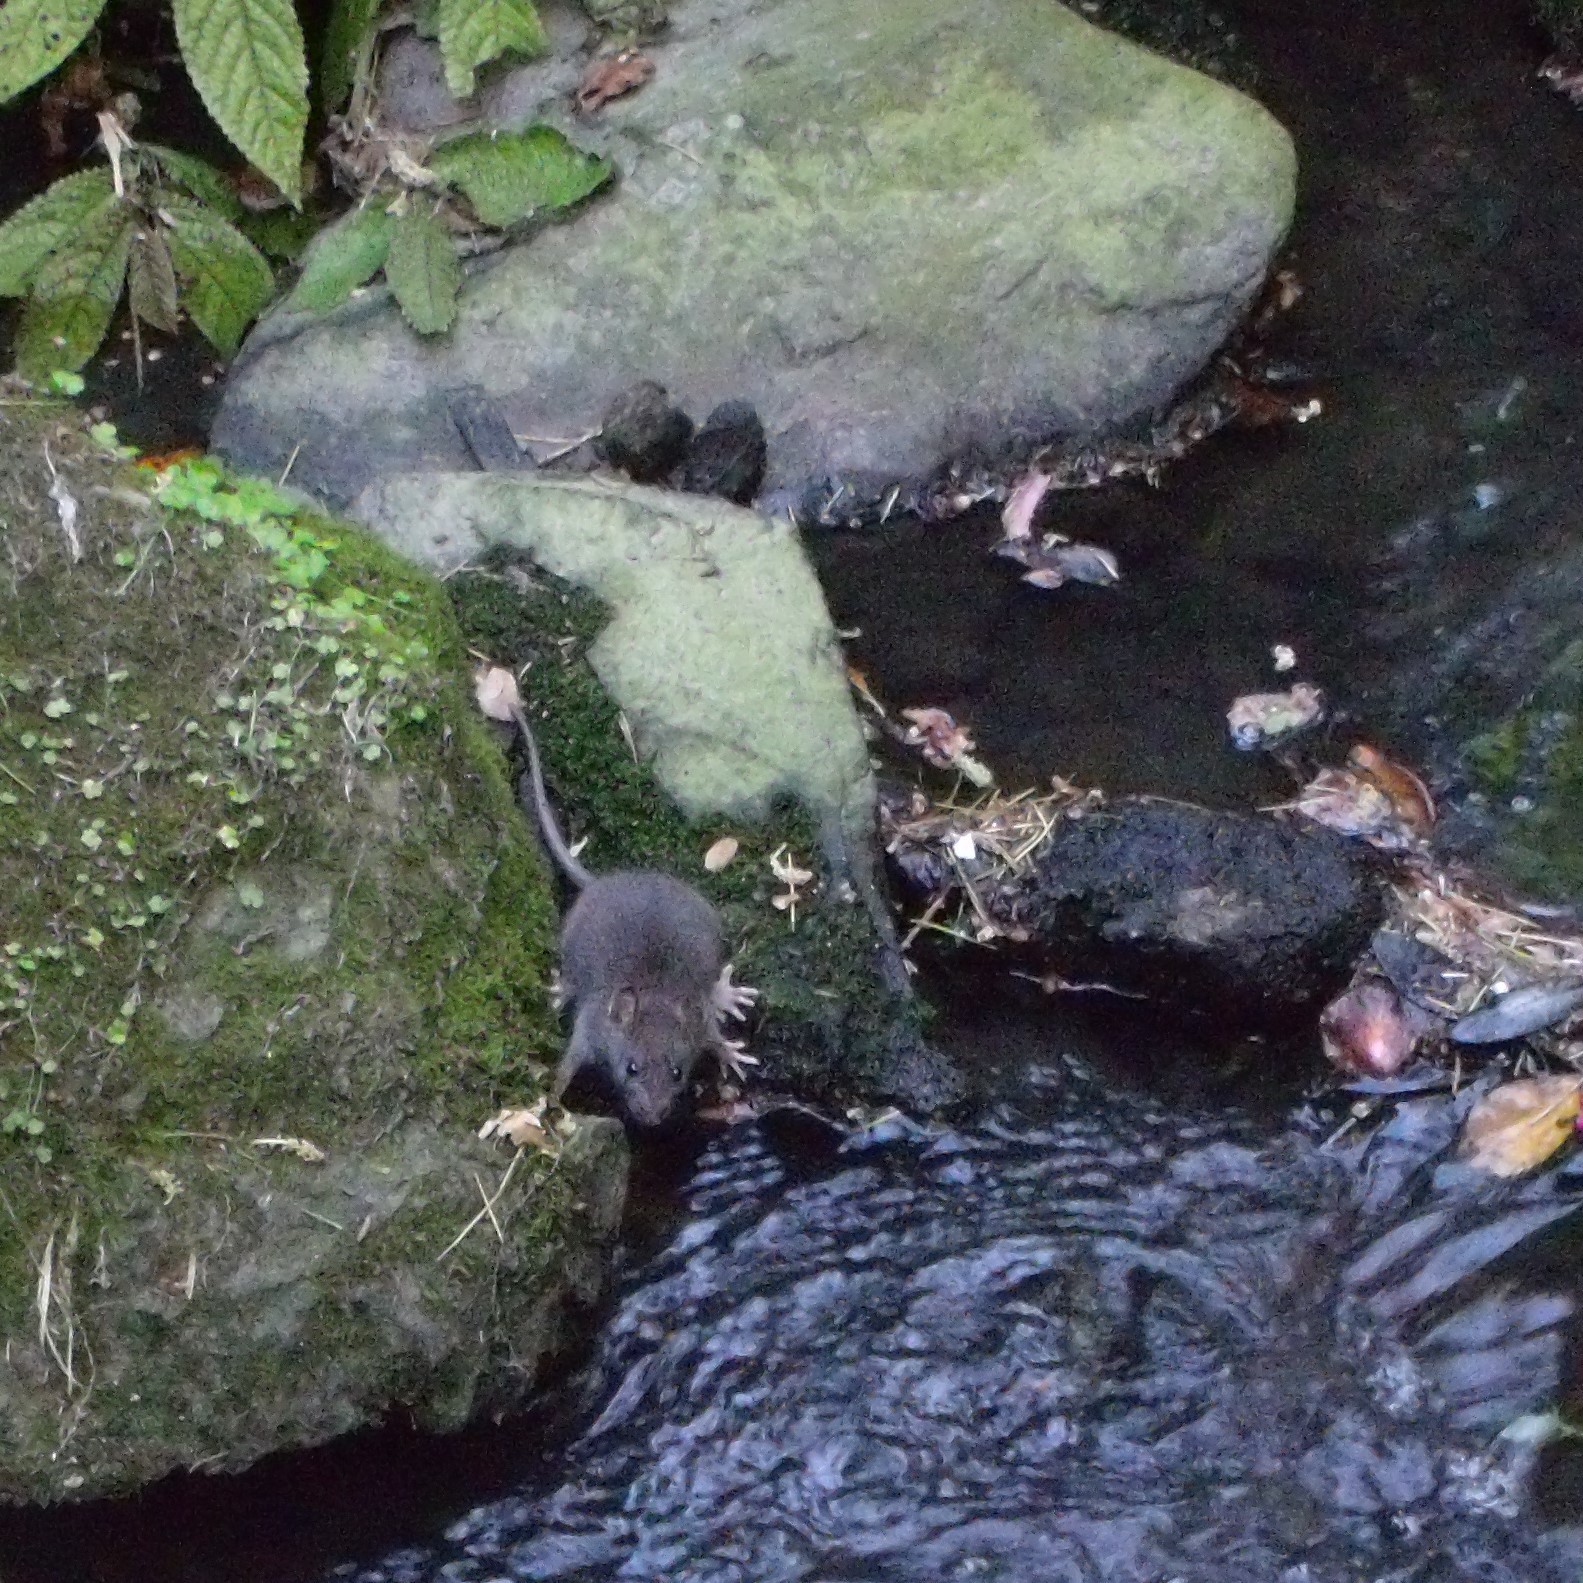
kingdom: Animalia
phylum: Chordata
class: Mammalia
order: Rodentia
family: Muridae
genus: Rattus
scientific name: Rattus norvegicus
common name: Brown rat
